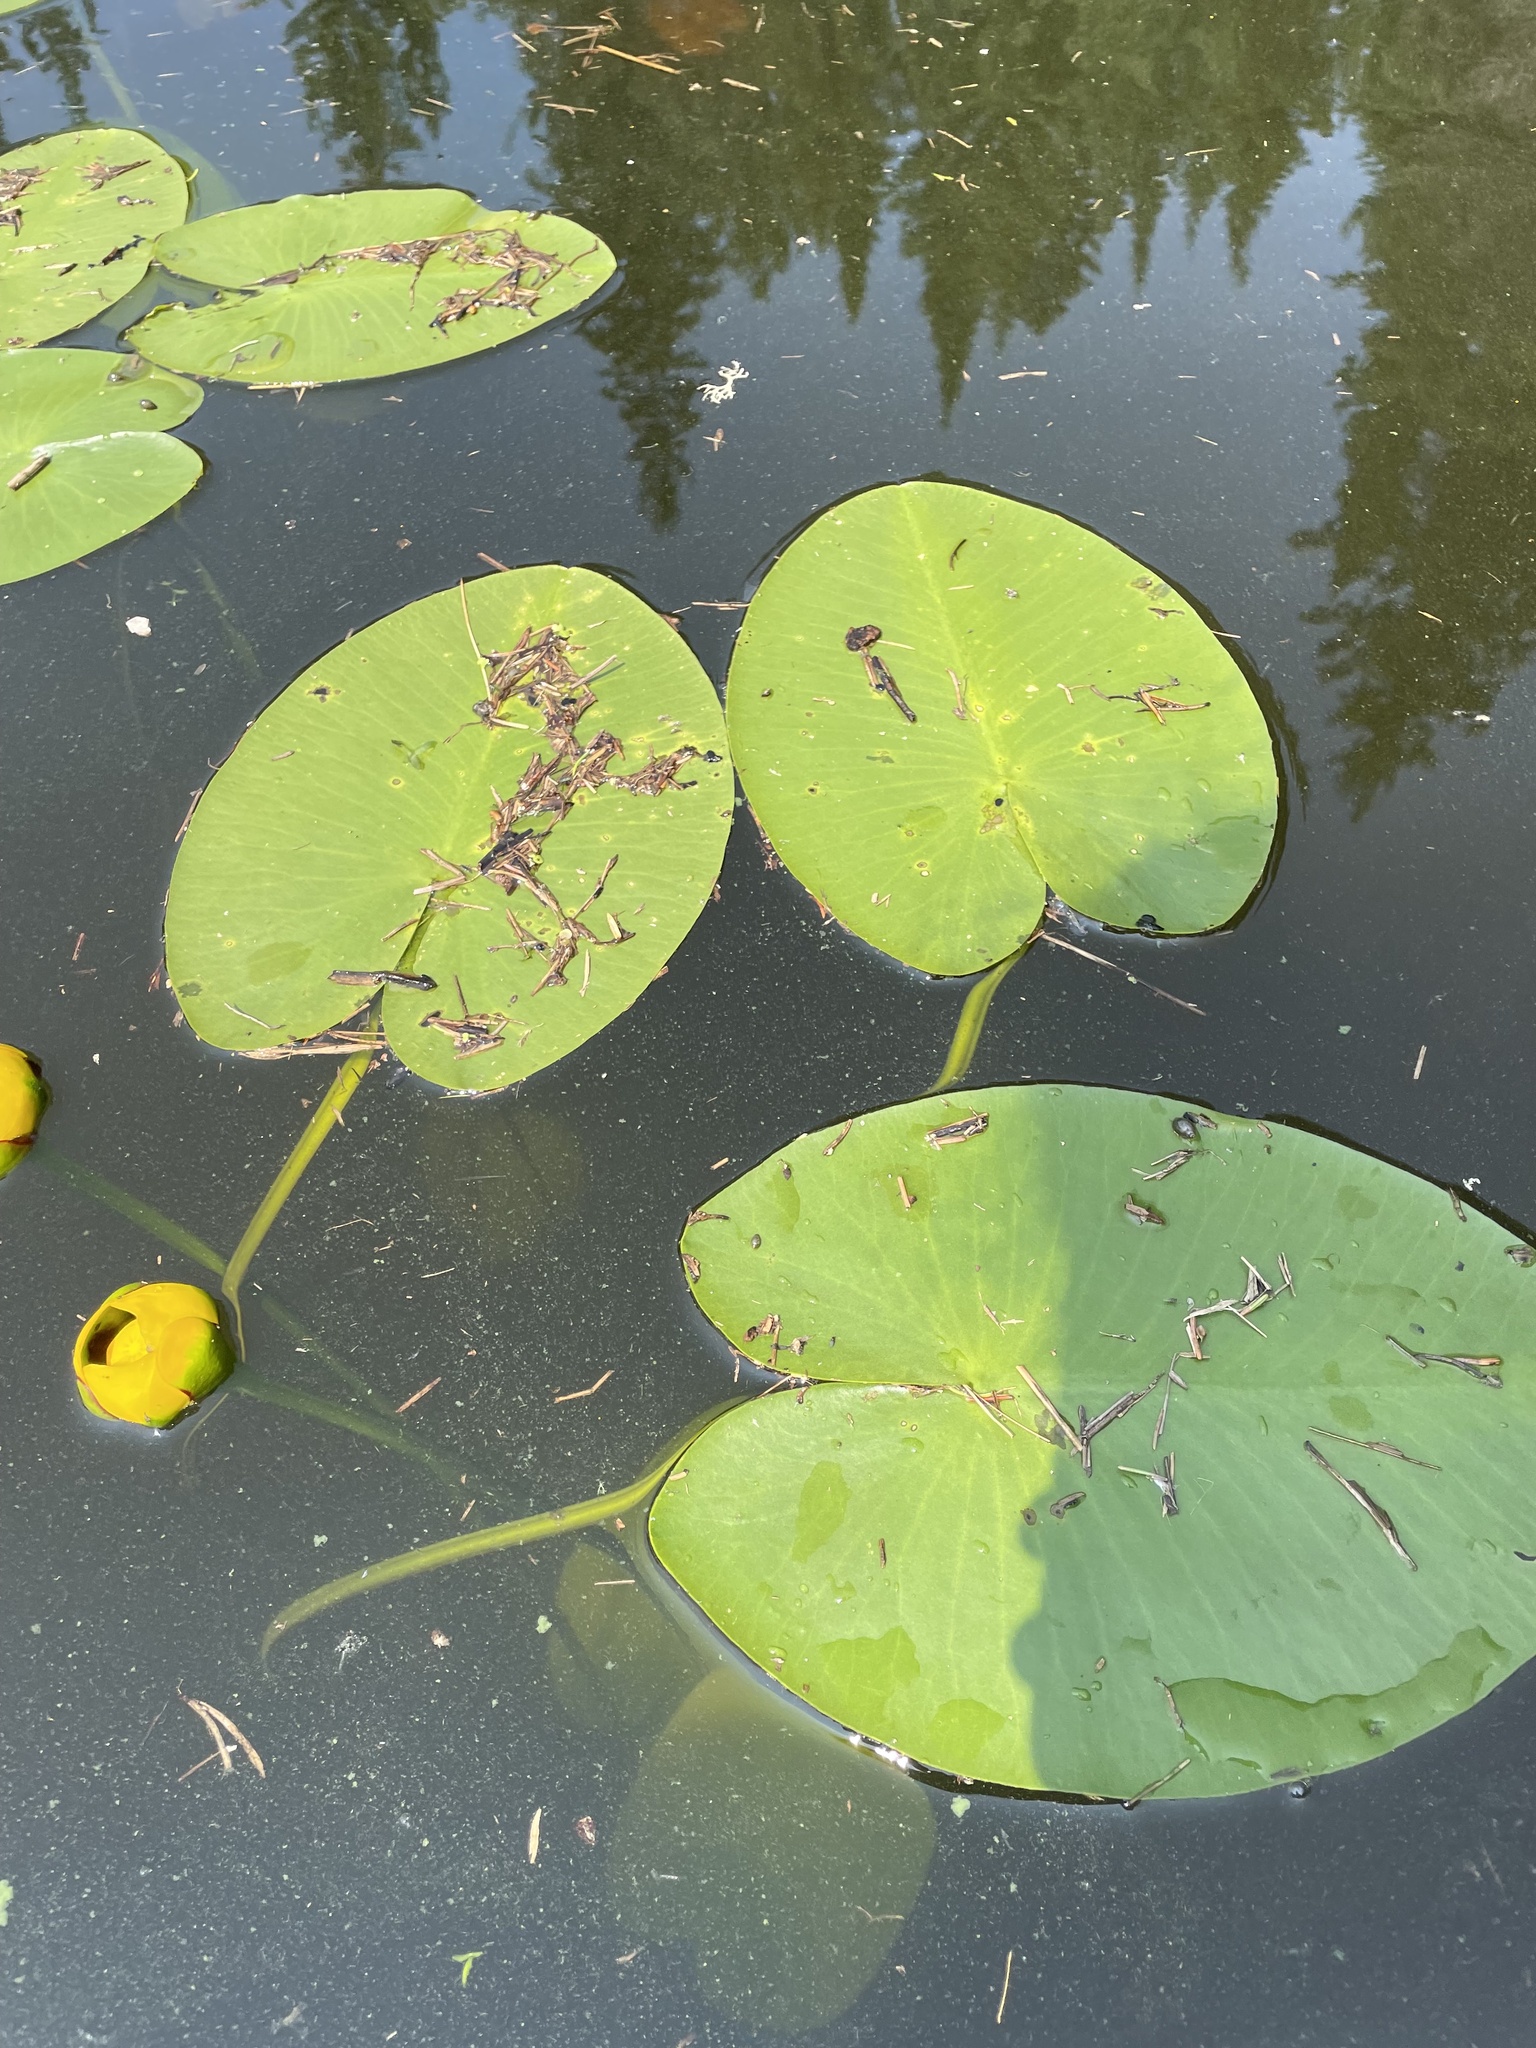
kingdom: Plantae
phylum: Tracheophyta
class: Magnoliopsida
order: Nymphaeales
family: Nymphaeaceae
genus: Nuphar
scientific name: Nuphar variegata
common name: Beaver-root
